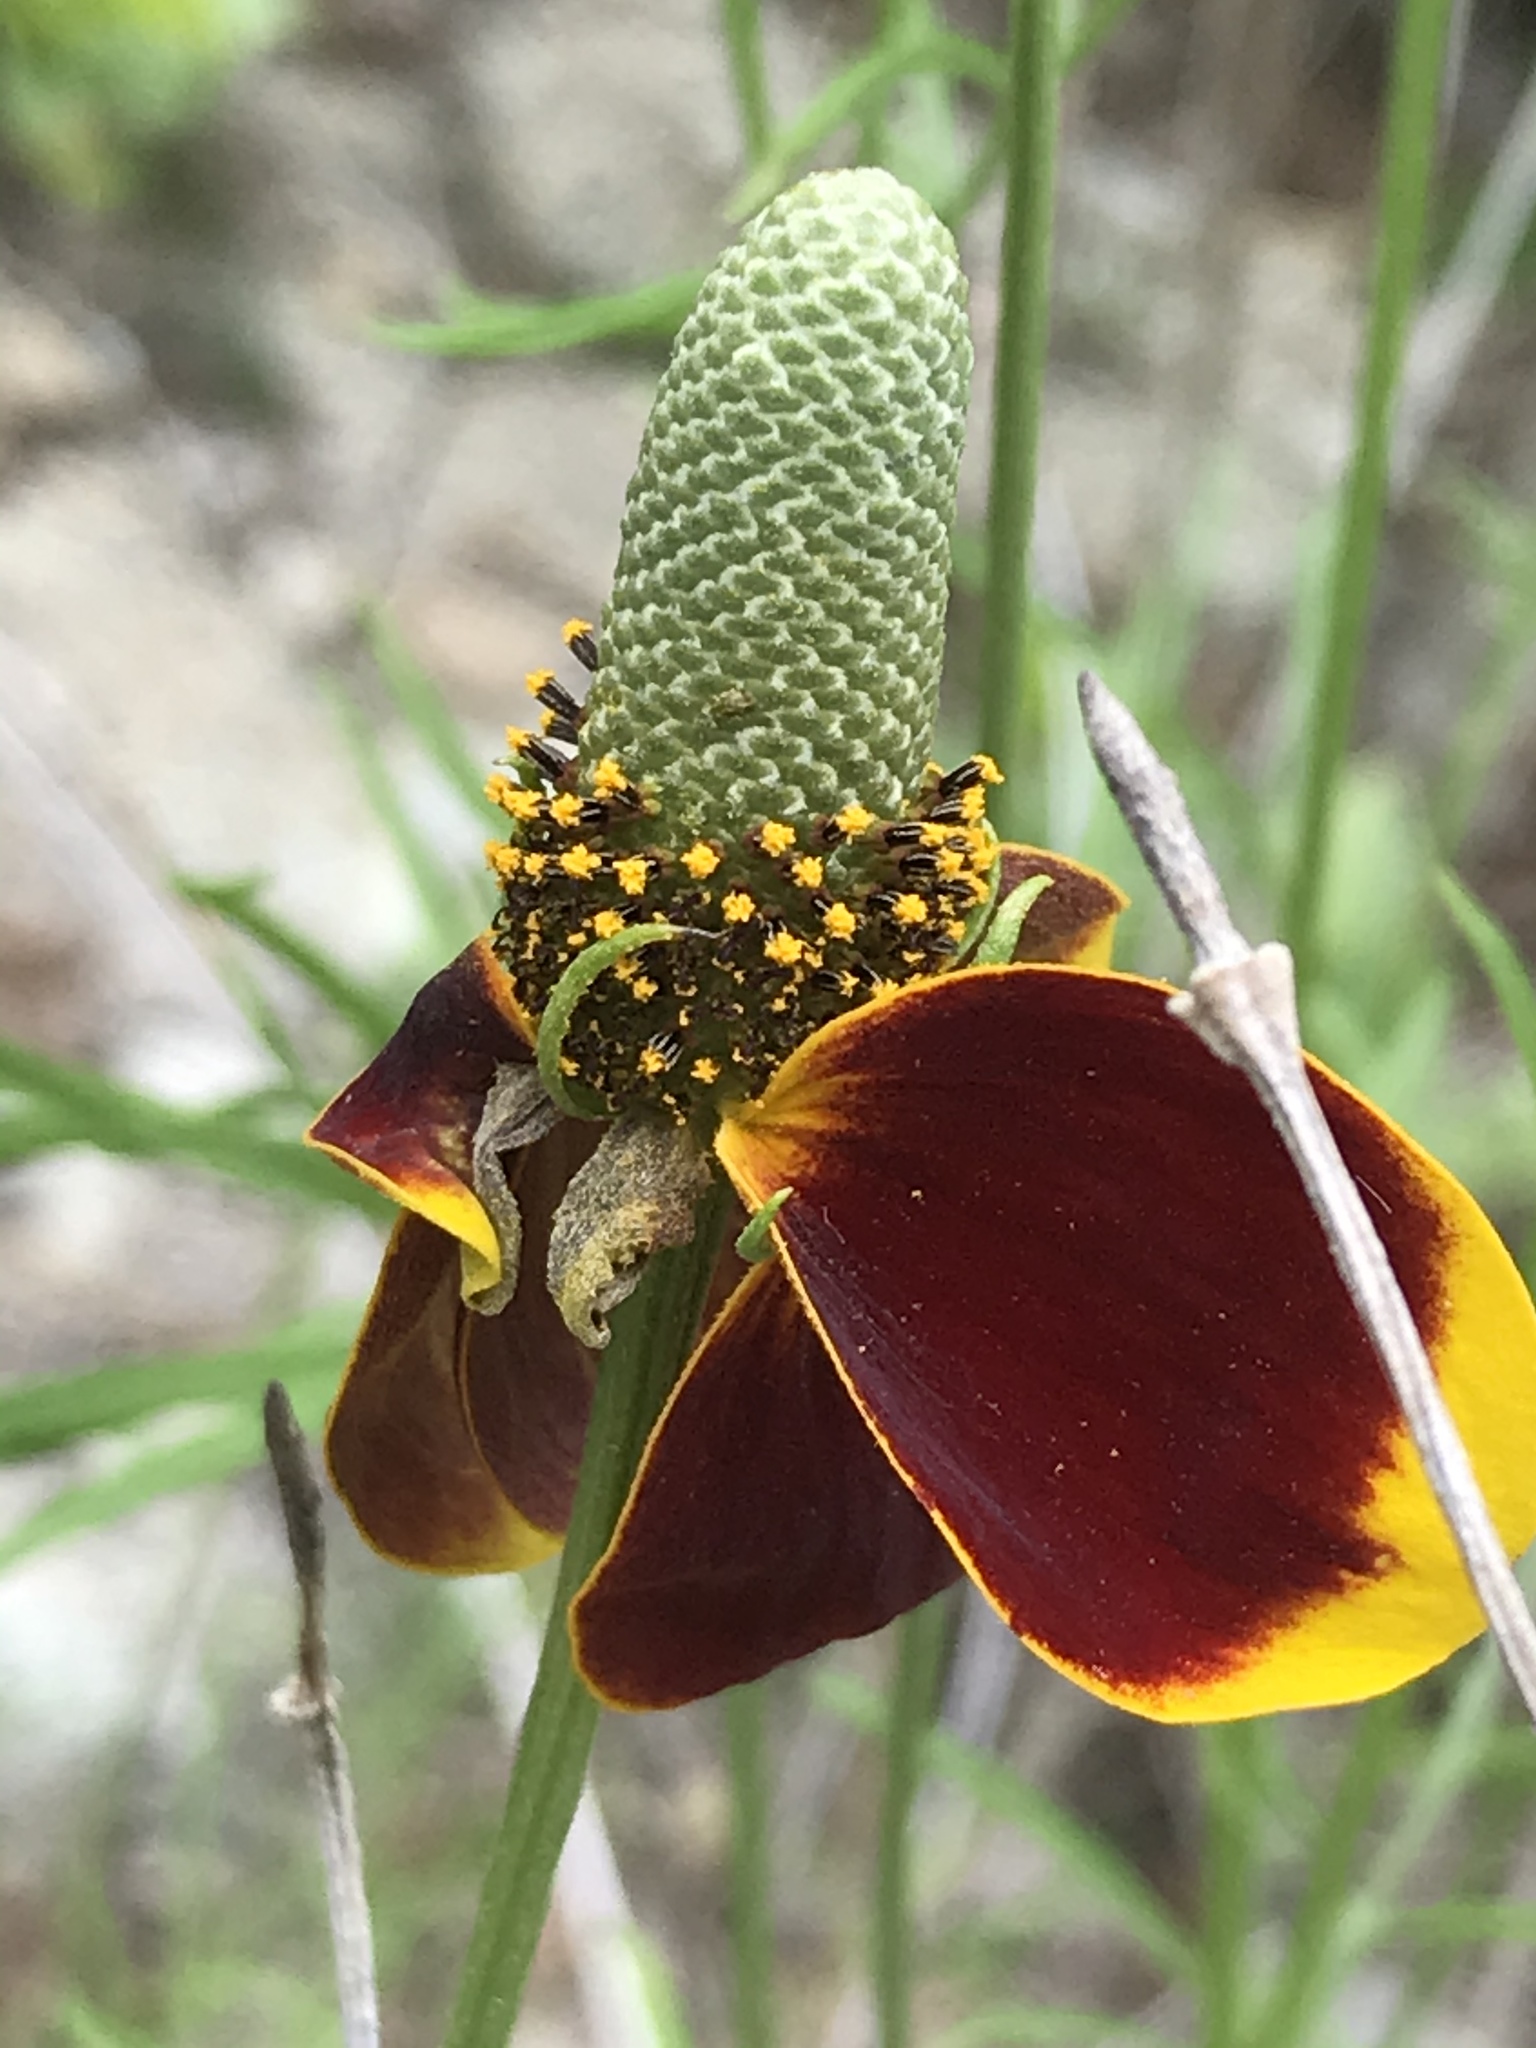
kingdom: Plantae
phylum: Tracheophyta
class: Magnoliopsida
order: Asterales
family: Asteraceae
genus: Ratibida
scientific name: Ratibida columnifera
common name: Prairie coneflower
